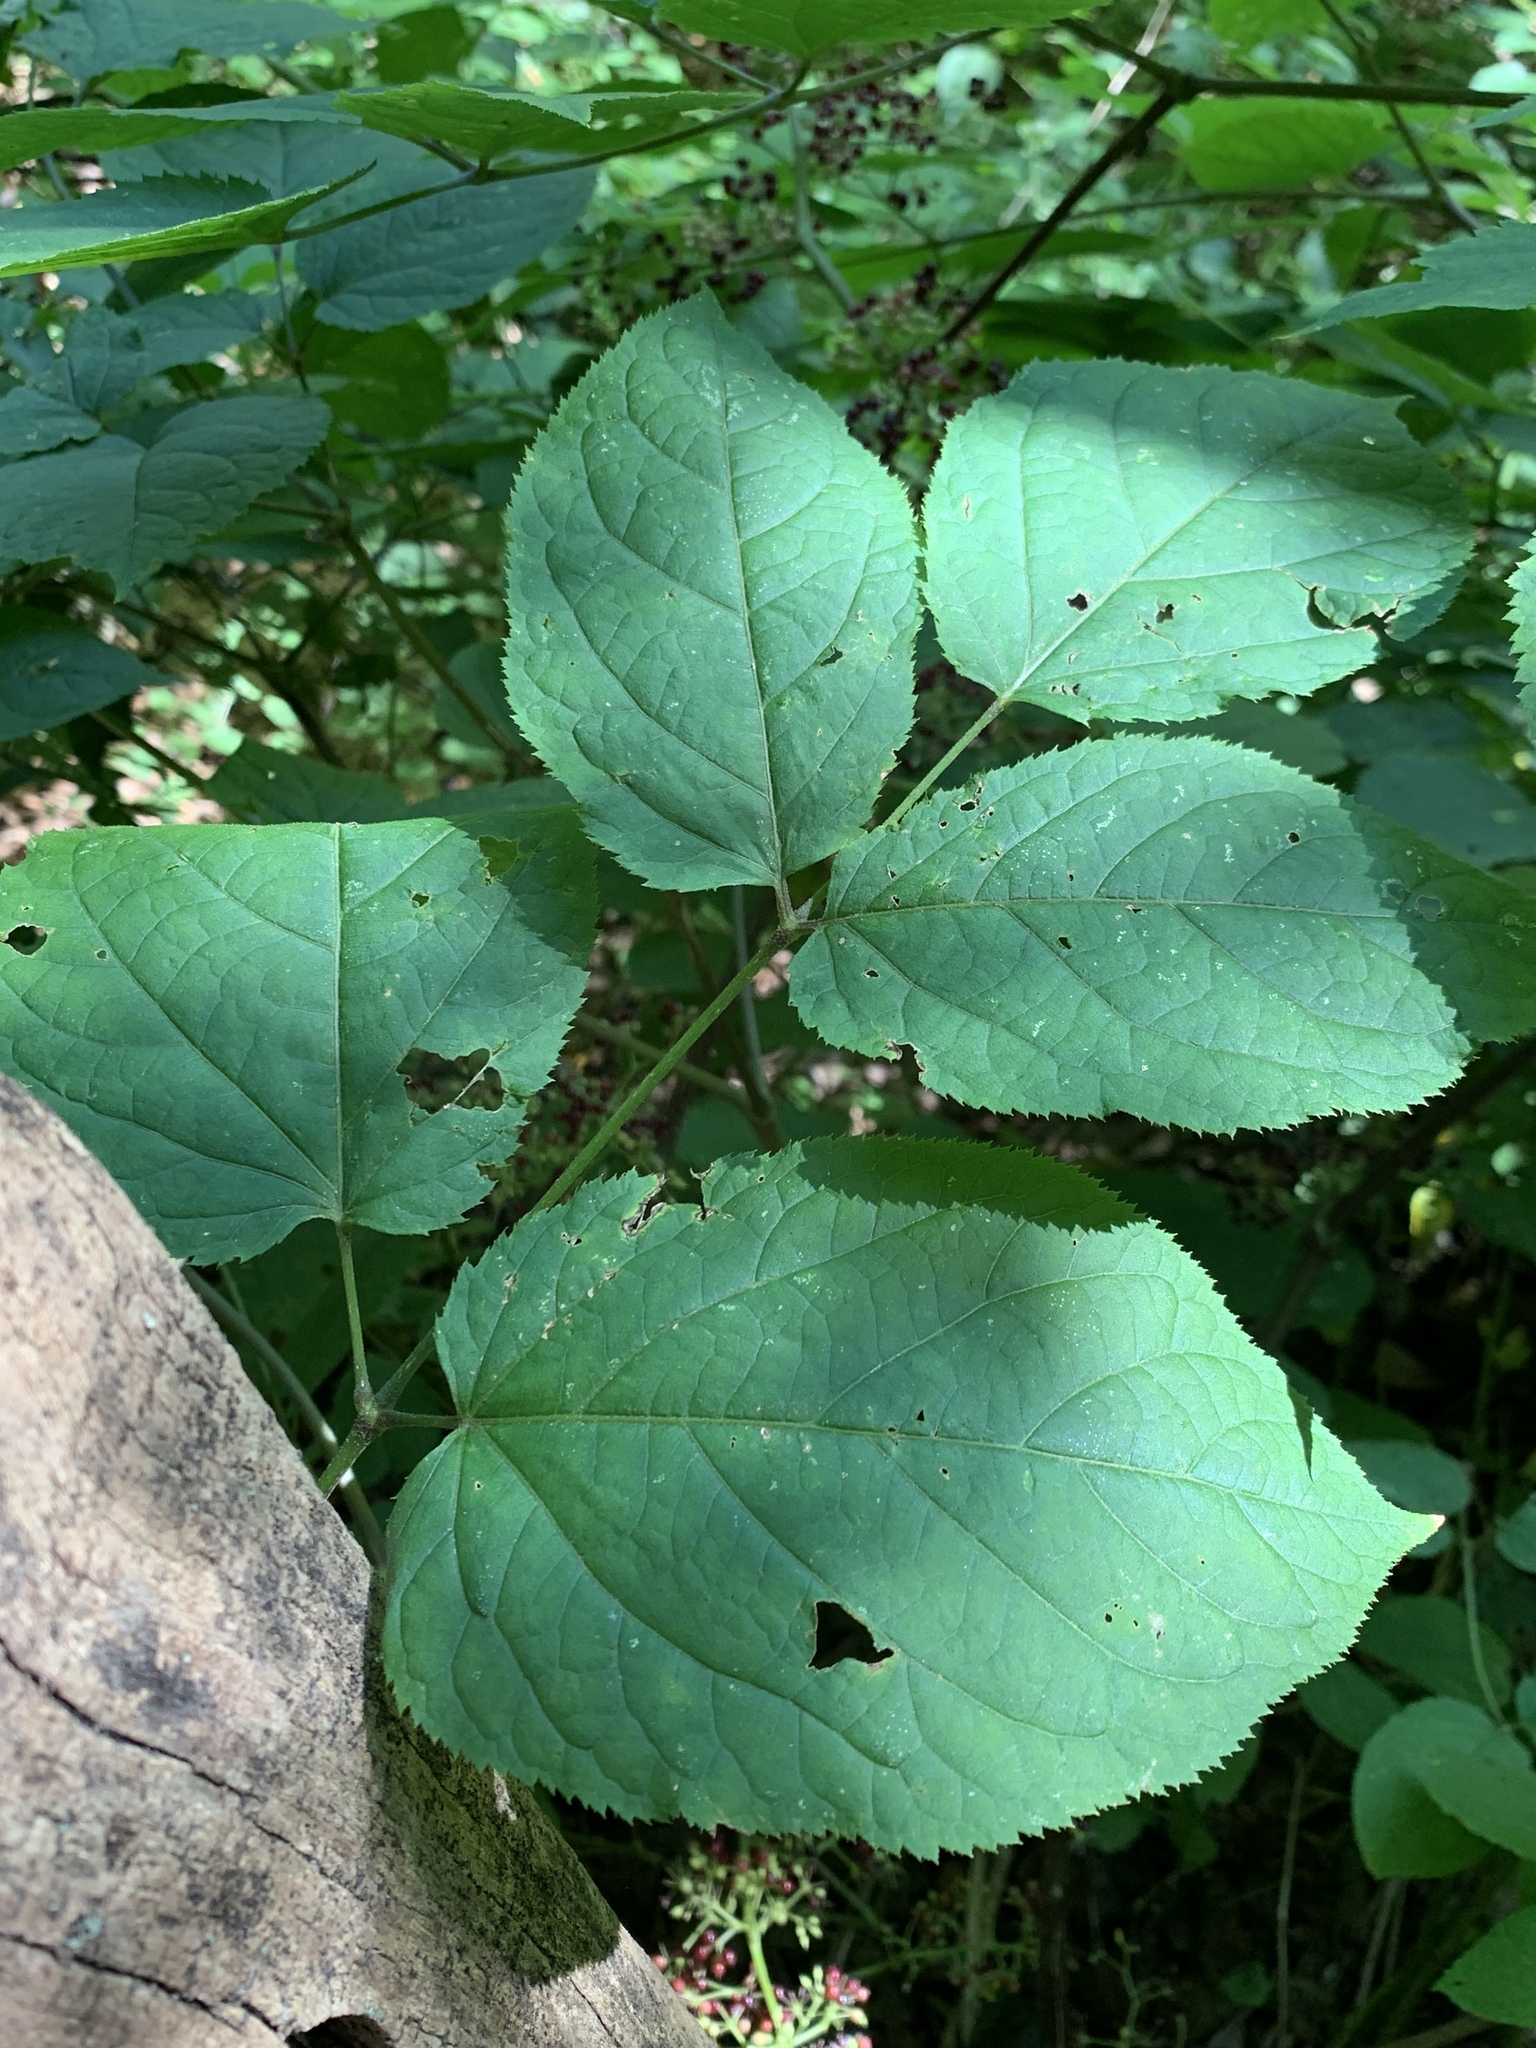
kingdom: Plantae
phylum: Tracheophyta
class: Magnoliopsida
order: Apiales
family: Araliaceae
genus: Aralia
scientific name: Aralia racemosa
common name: American-spikenard
